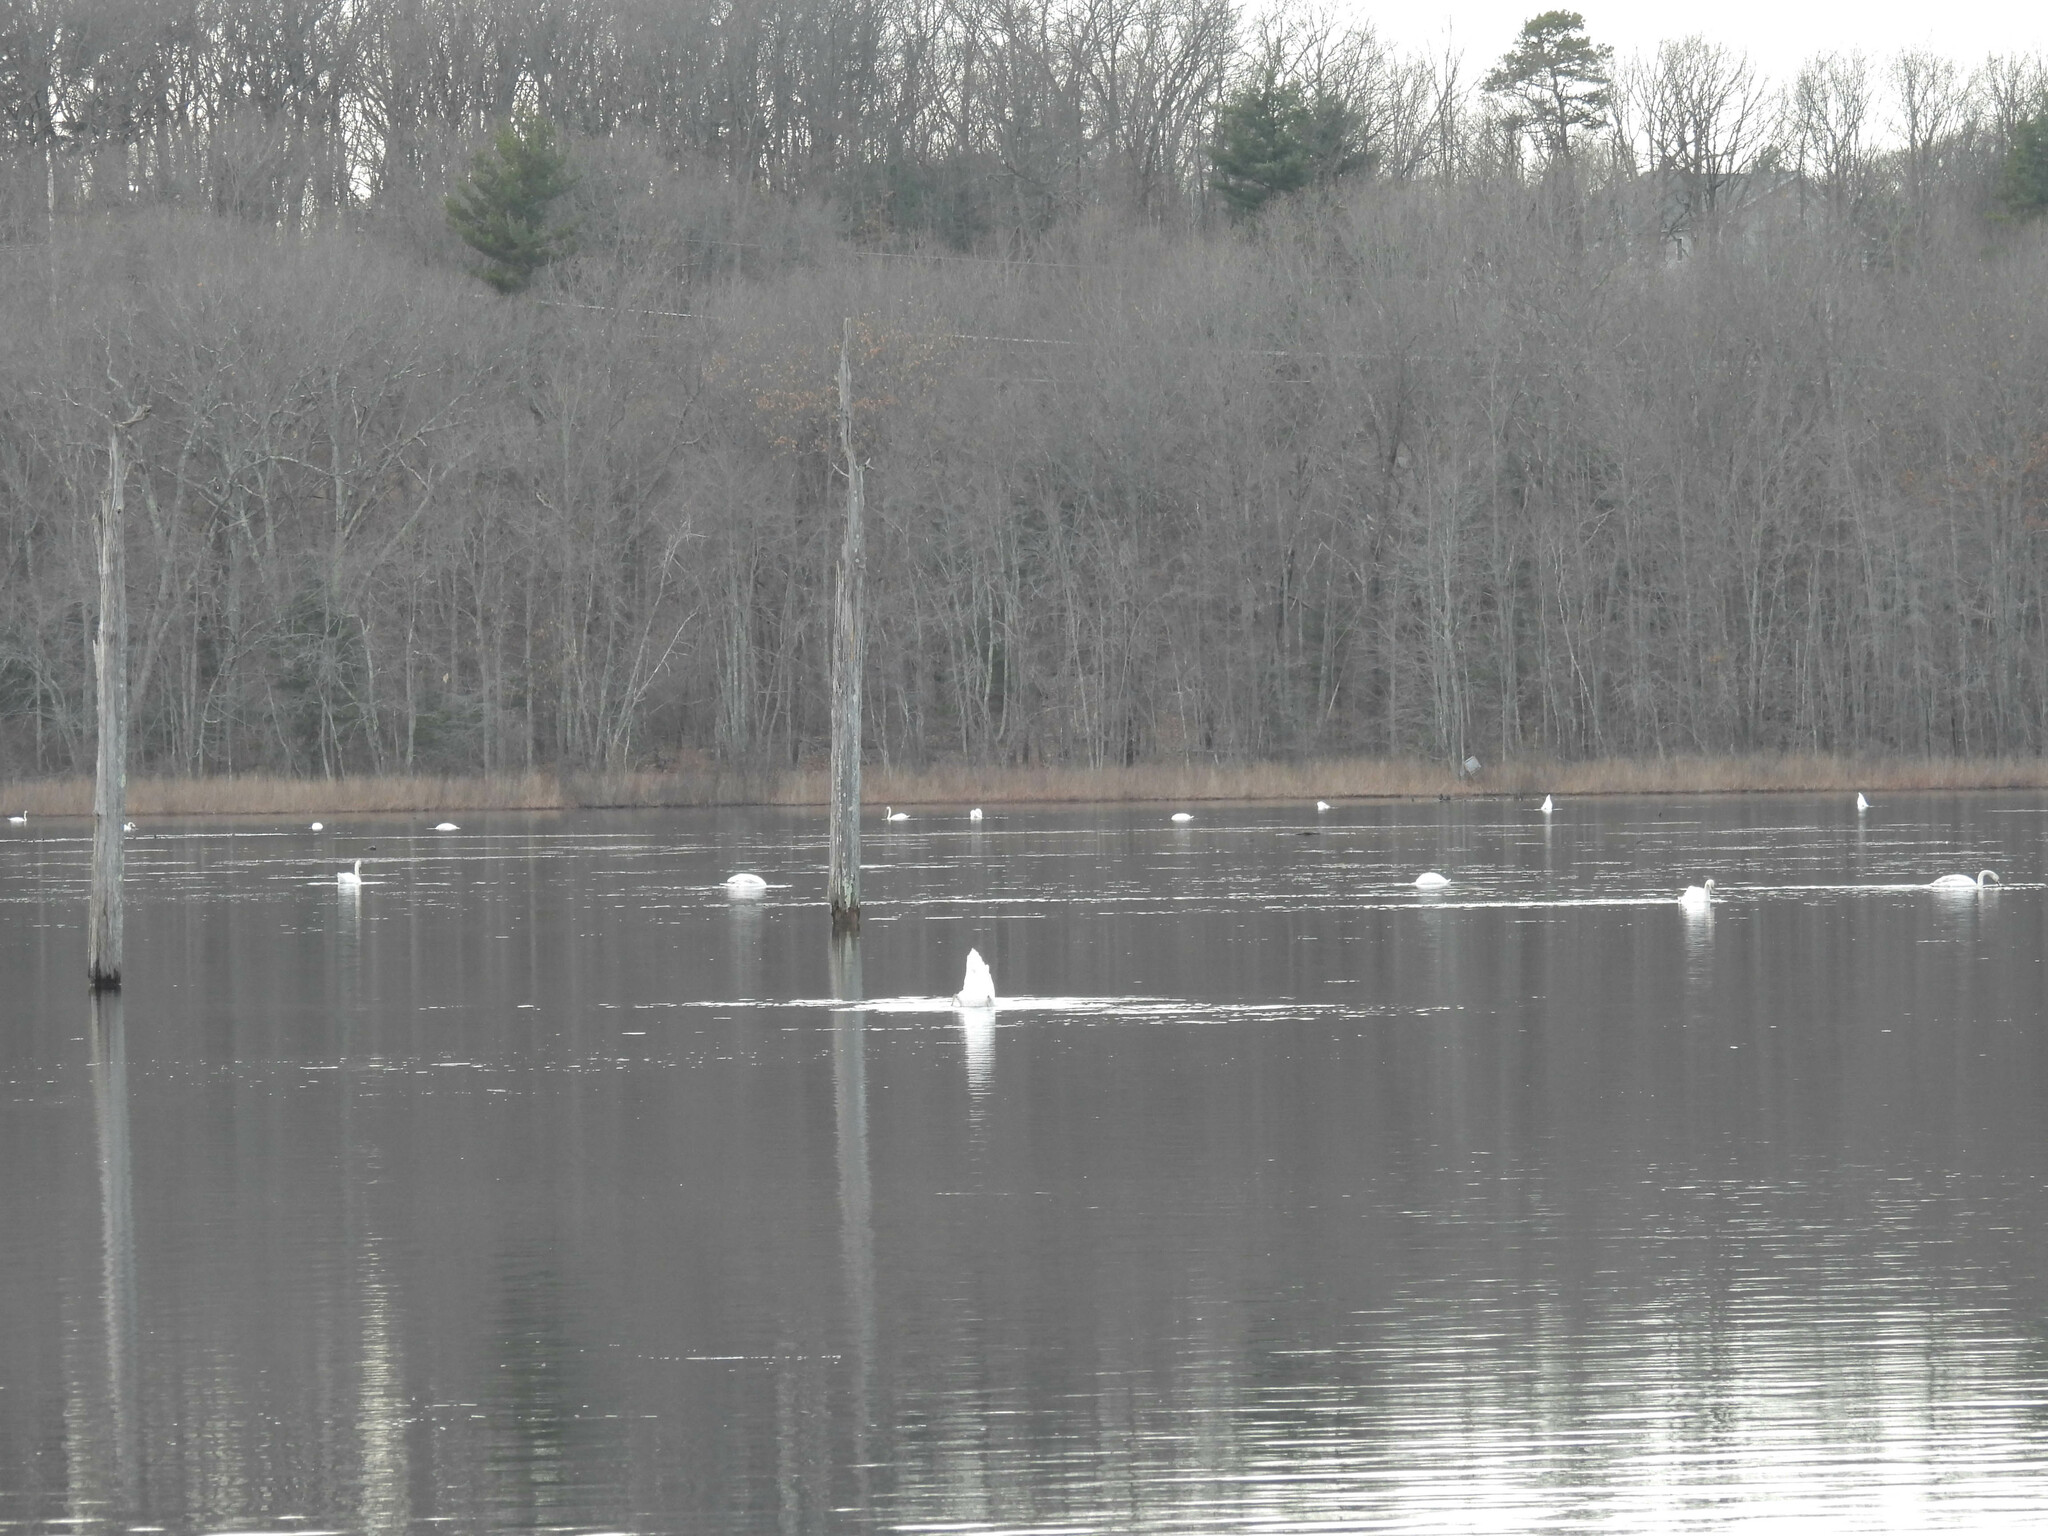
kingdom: Animalia
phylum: Chordata
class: Aves
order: Anseriformes
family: Anatidae
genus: Cygnus
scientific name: Cygnus olor
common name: Mute swan
